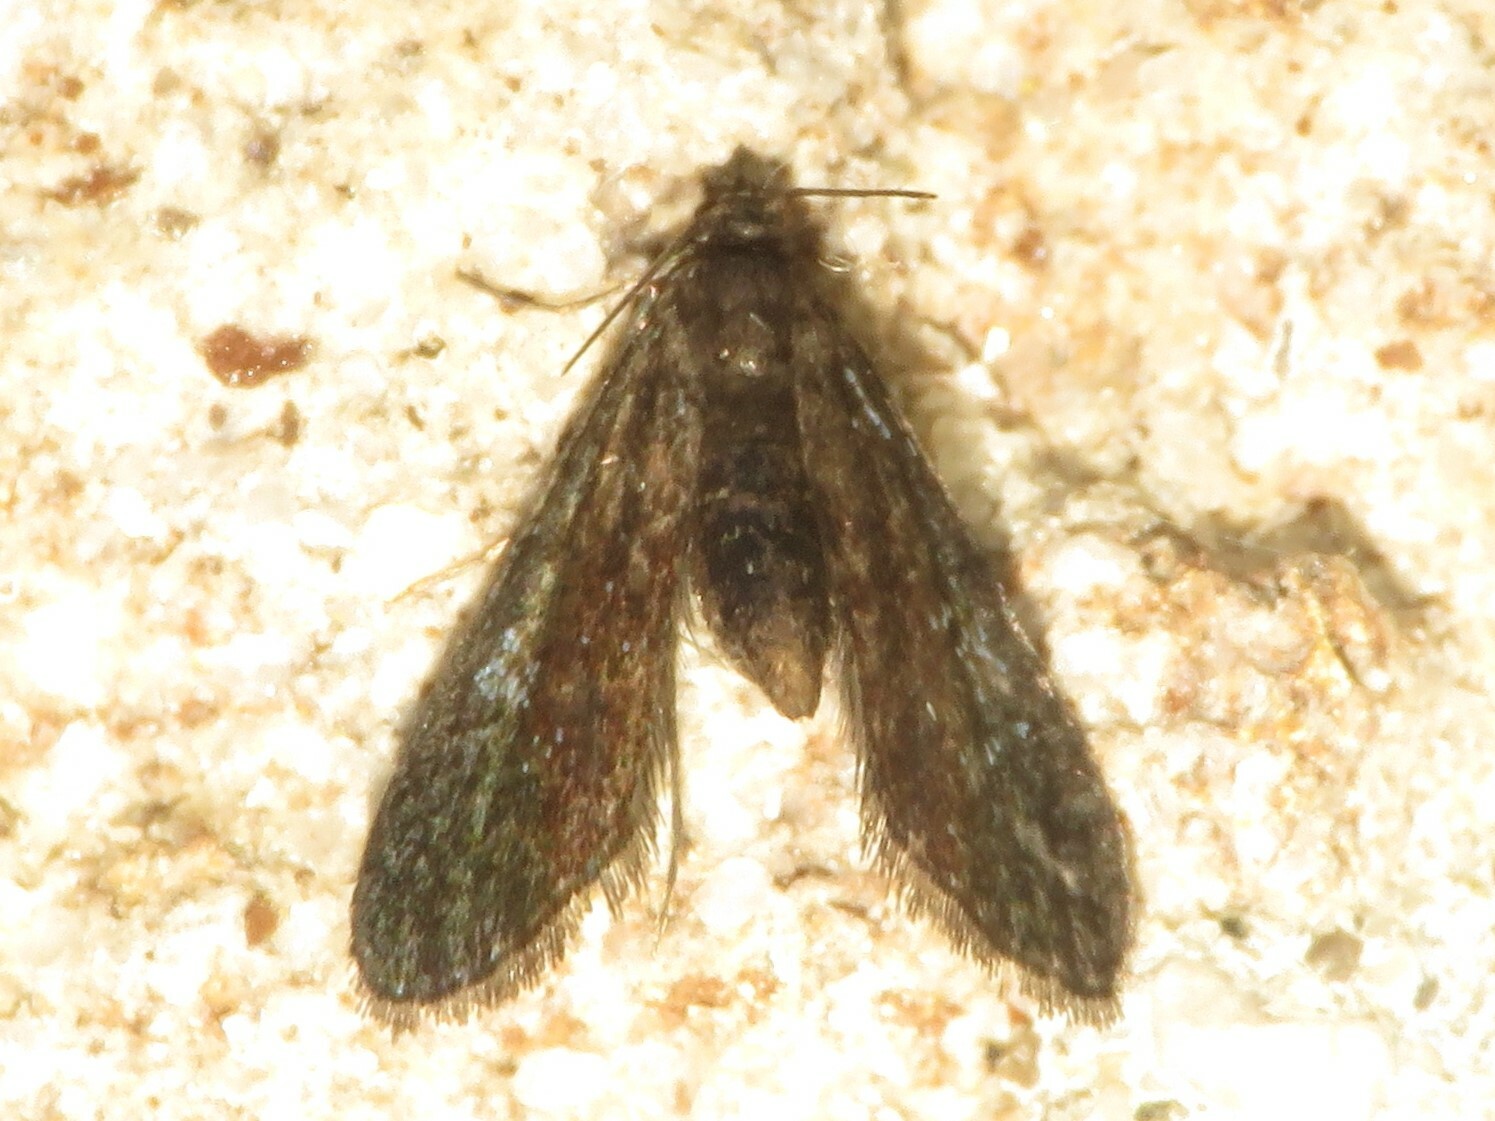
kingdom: Animalia
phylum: Arthropoda
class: Insecta
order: Lepidoptera
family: Crambidae
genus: Elophila
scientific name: Elophila tinealis
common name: Black duckweed moth
